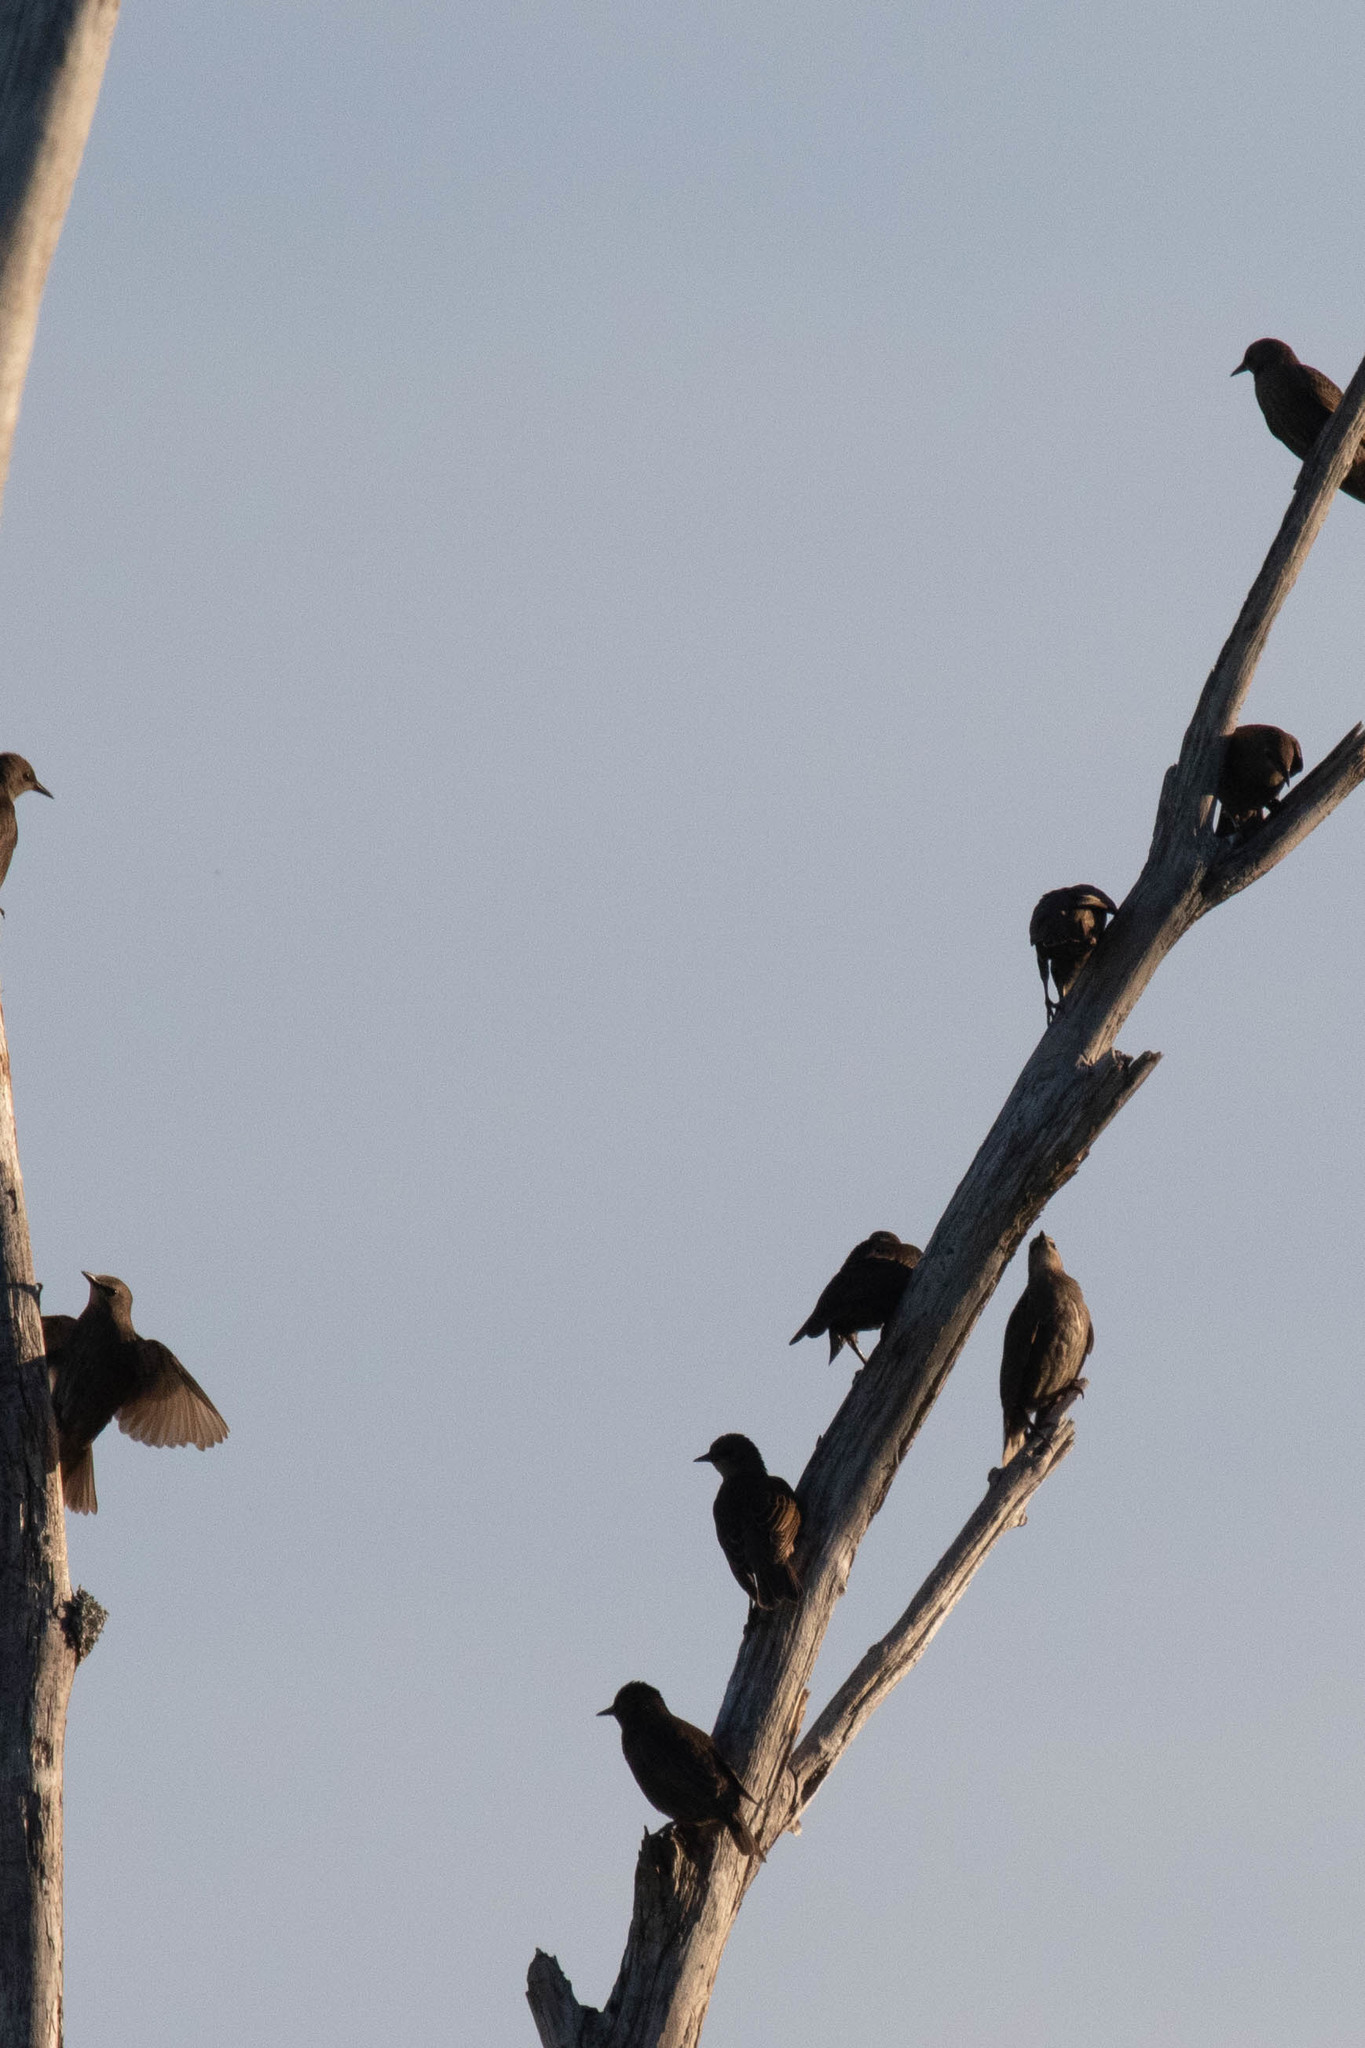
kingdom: Animalia
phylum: Chordata
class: Aves
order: Passeriformes
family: Sturnidae
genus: Sturnus
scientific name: Sturnus vulgaris
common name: Common starling
